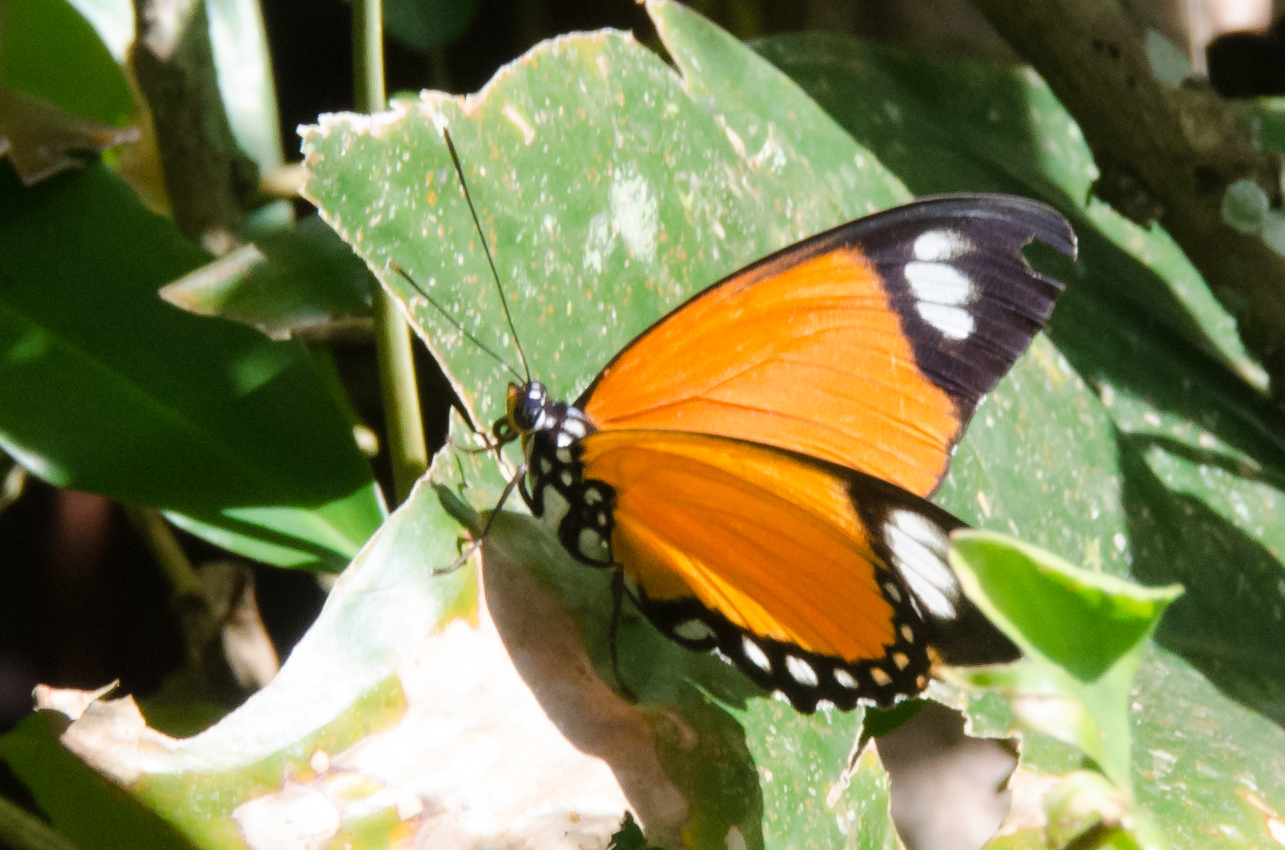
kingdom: Animalia
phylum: Arthropoda
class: Insecta
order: Lepidoptera
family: Nymphalidae
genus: Euphaedra
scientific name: Euphaedra ruspina
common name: Common orange forester
